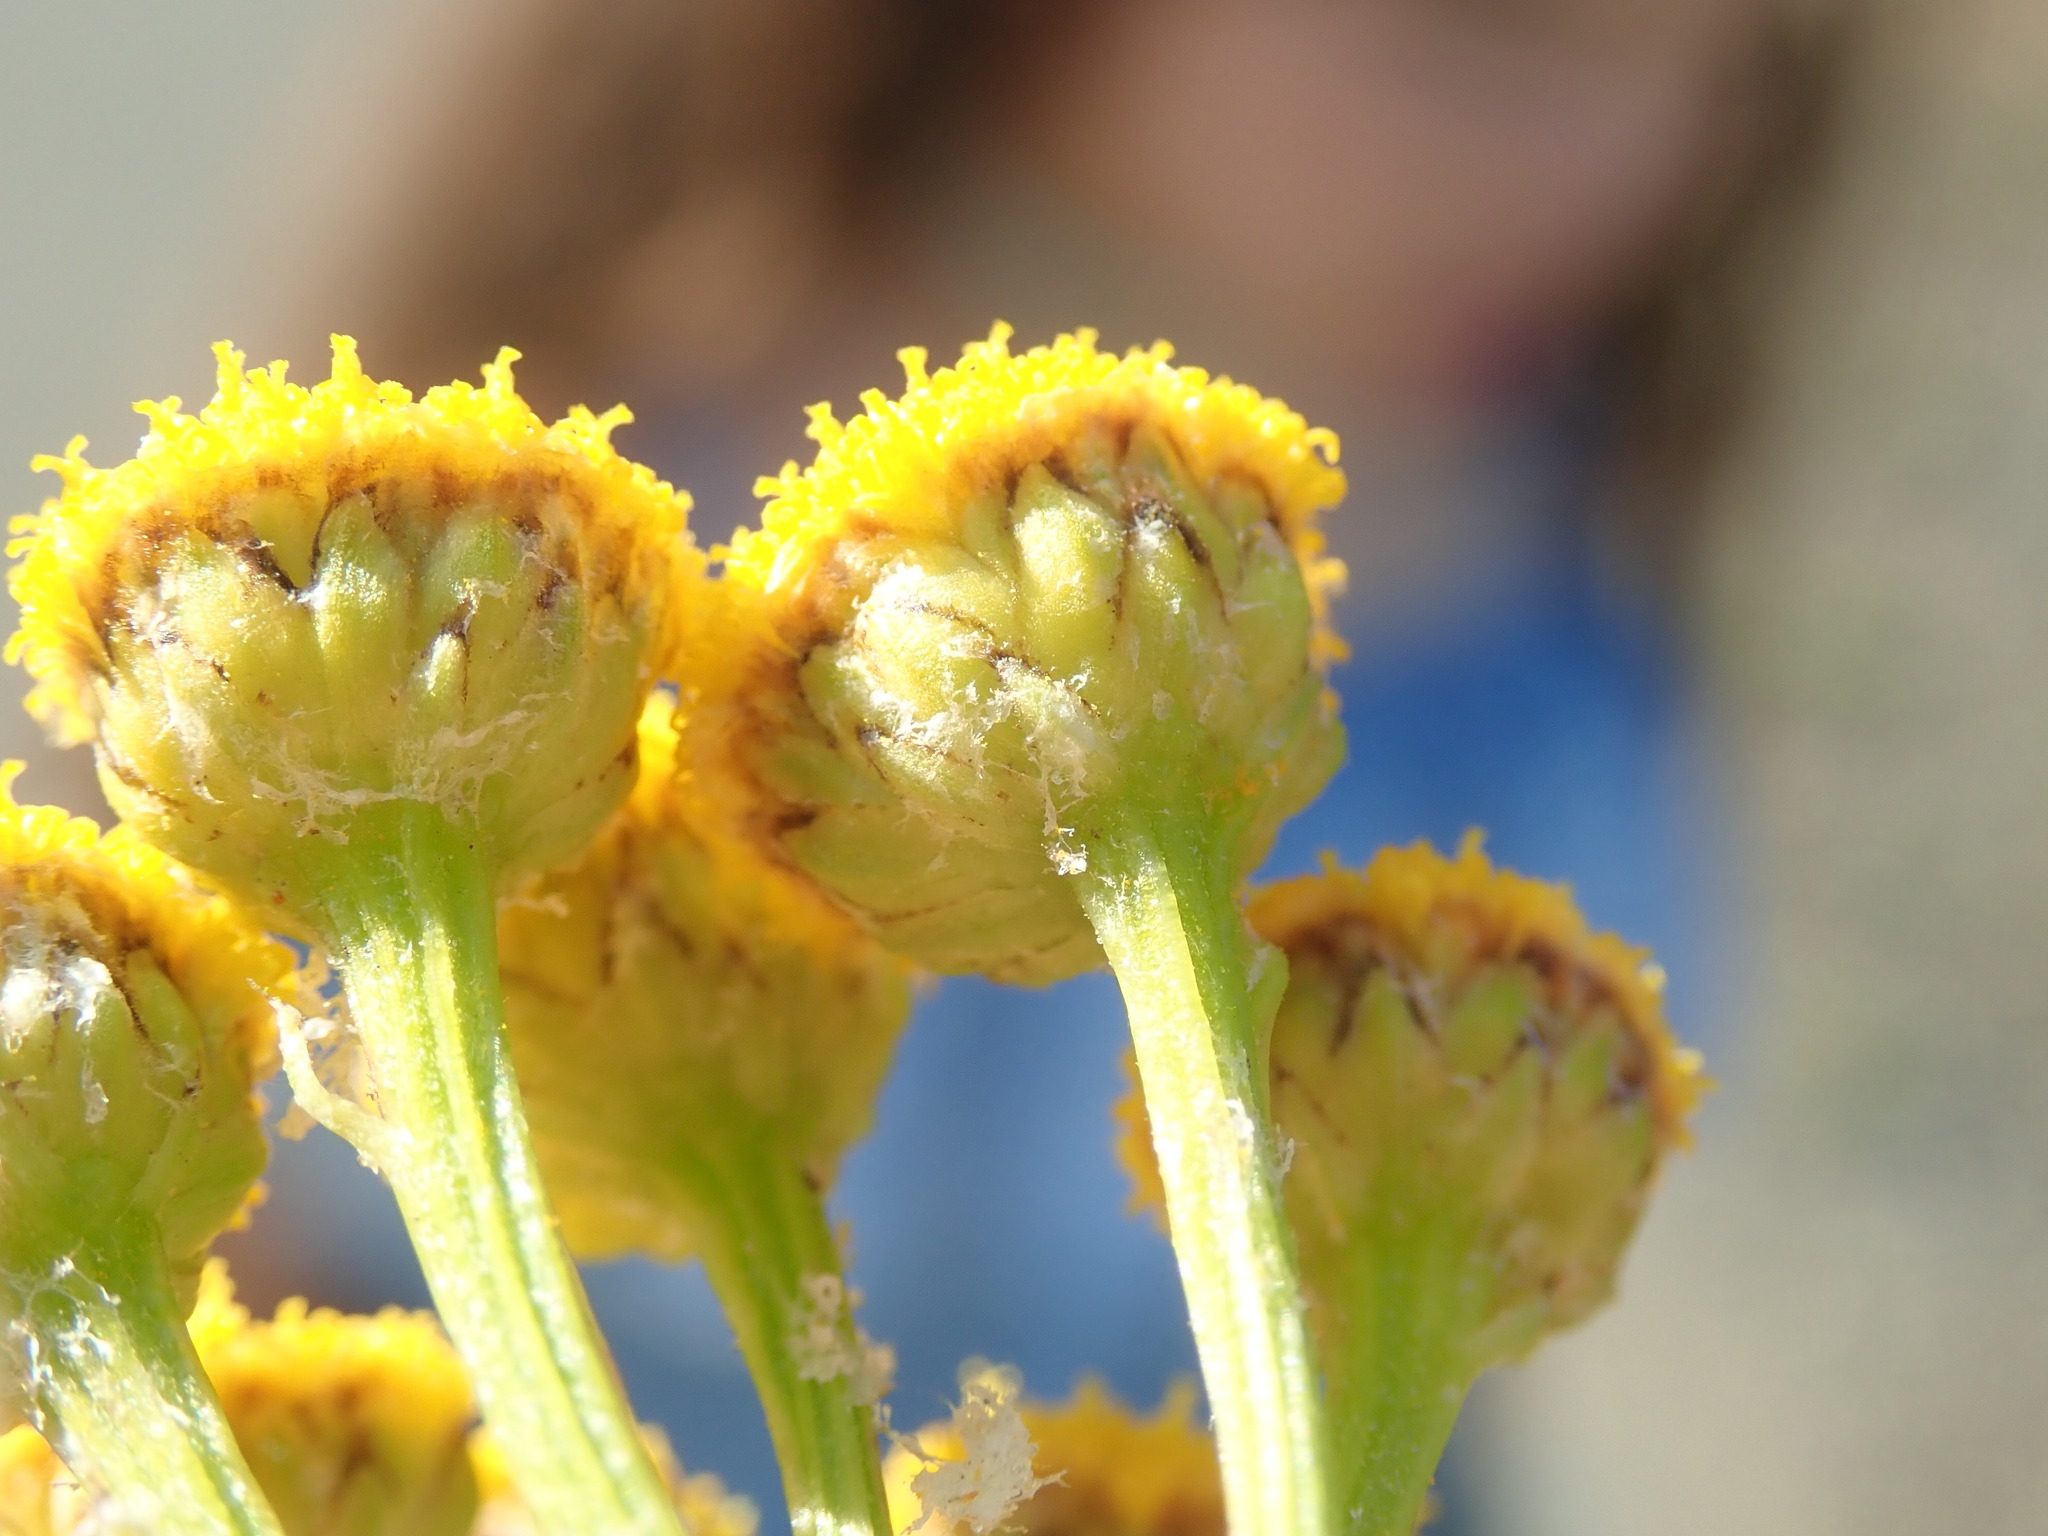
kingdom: Plantae
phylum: Tracheophyta
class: Magnoliopsida
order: Asterales
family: Asteraceae
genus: Tanacetum
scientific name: Tanacetum vulgare
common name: Common tansy
